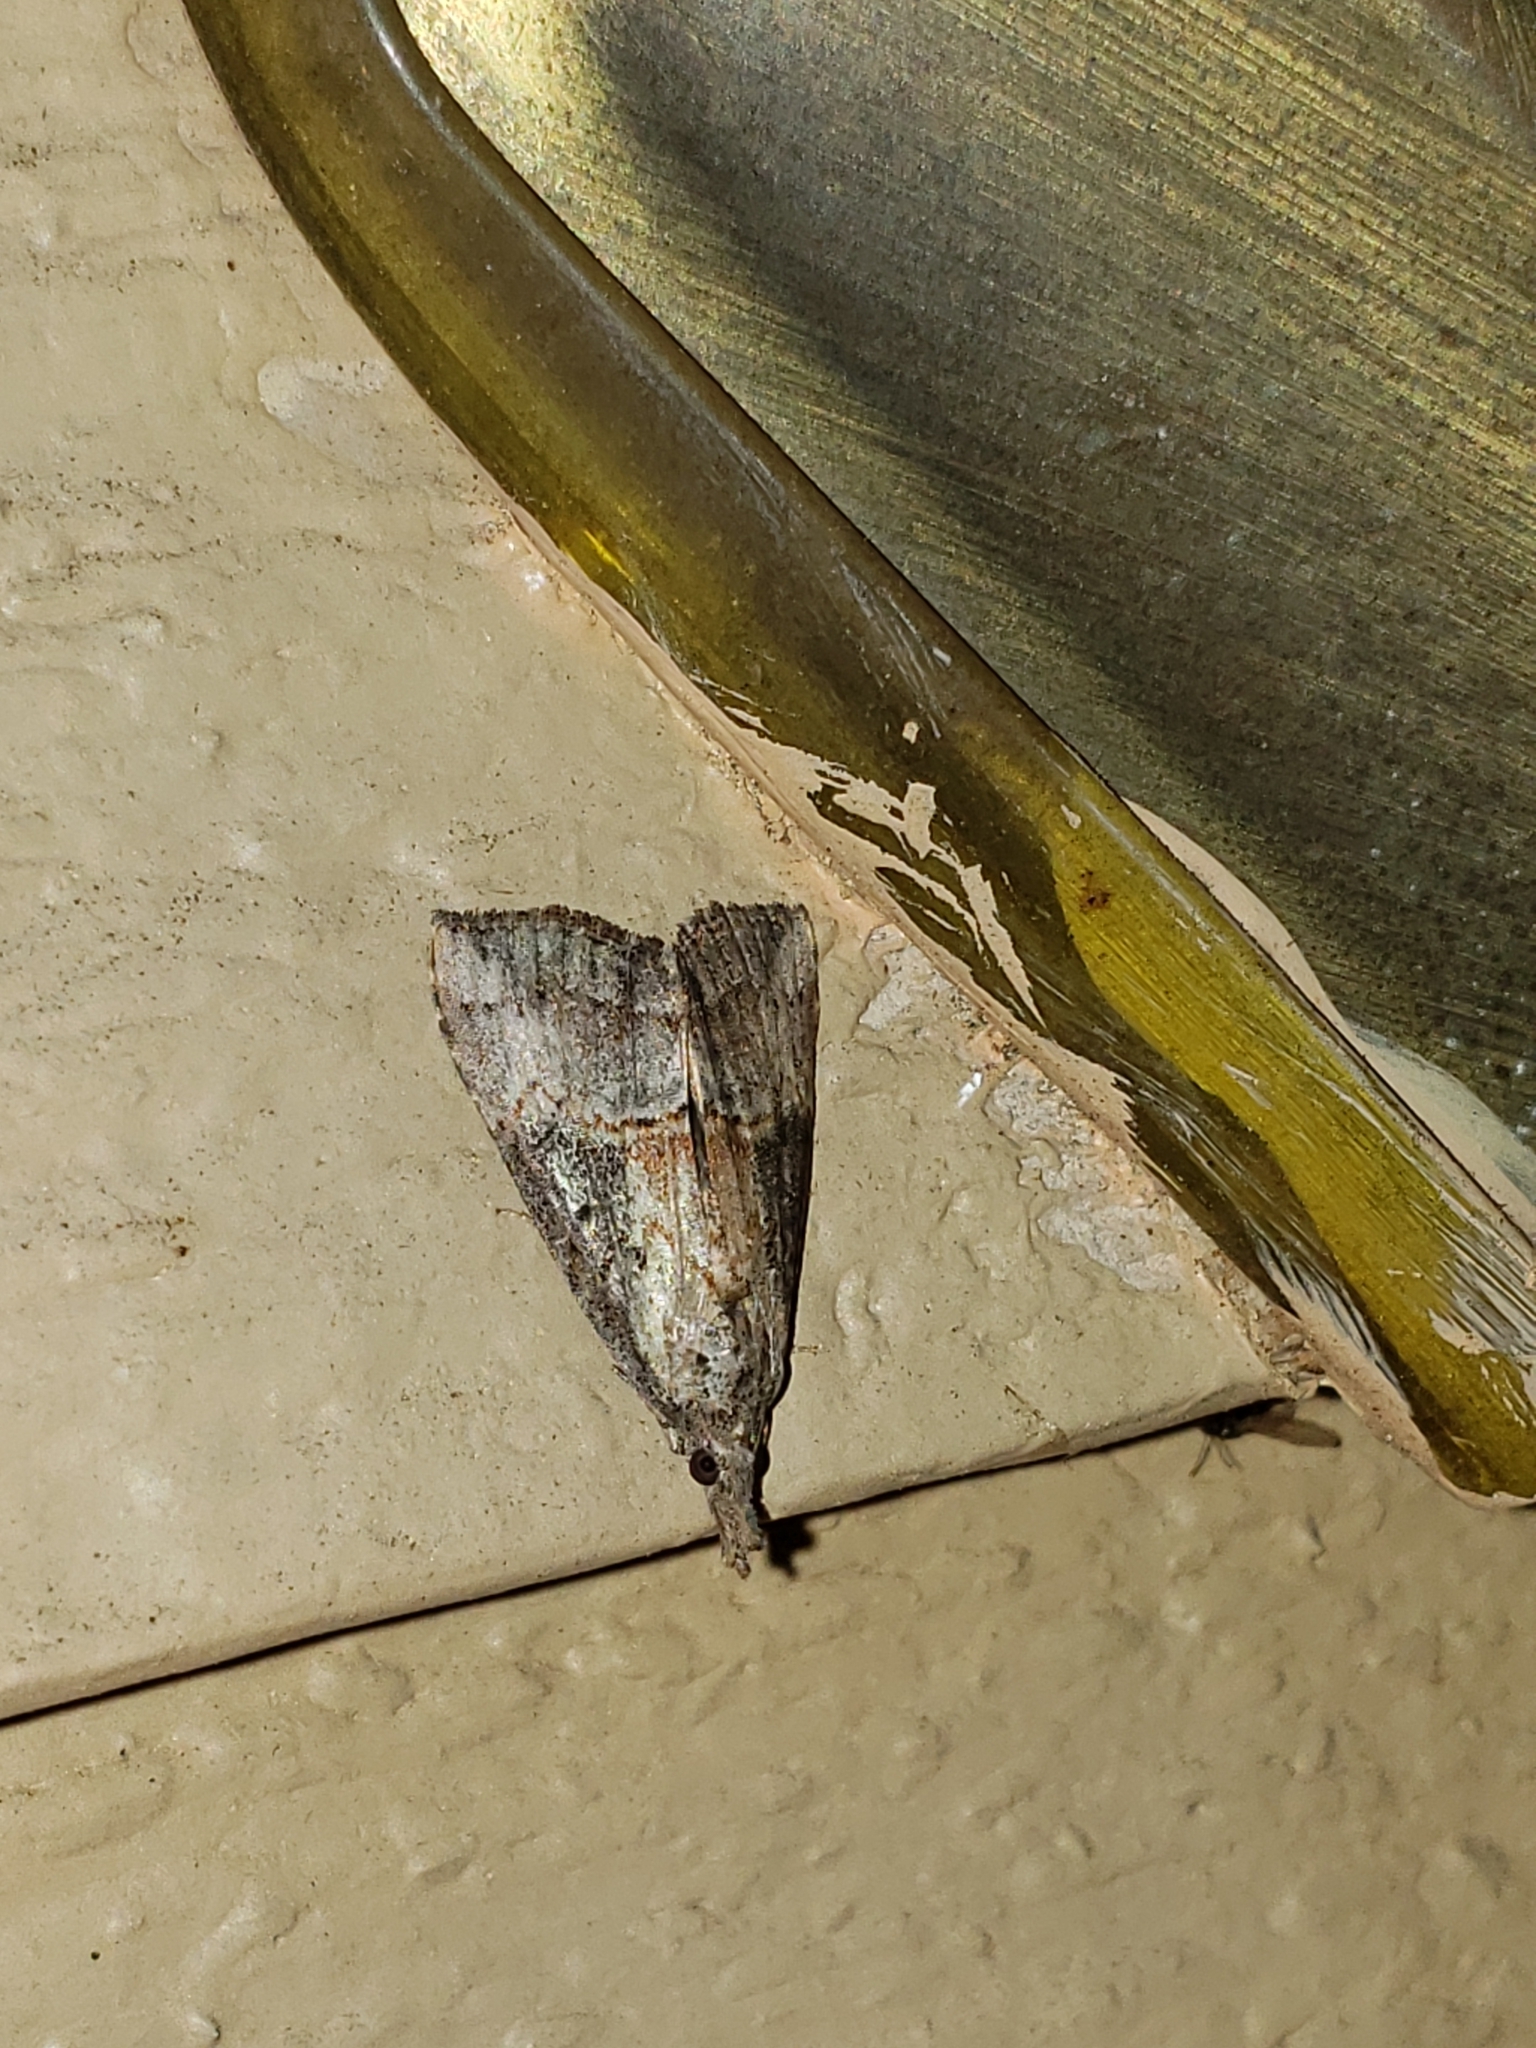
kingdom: Animalia
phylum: Arthropoda
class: Insecta
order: Lepidoptera
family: Erebidae
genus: Hypena
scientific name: Hypena scabra
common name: Green cloverworm
